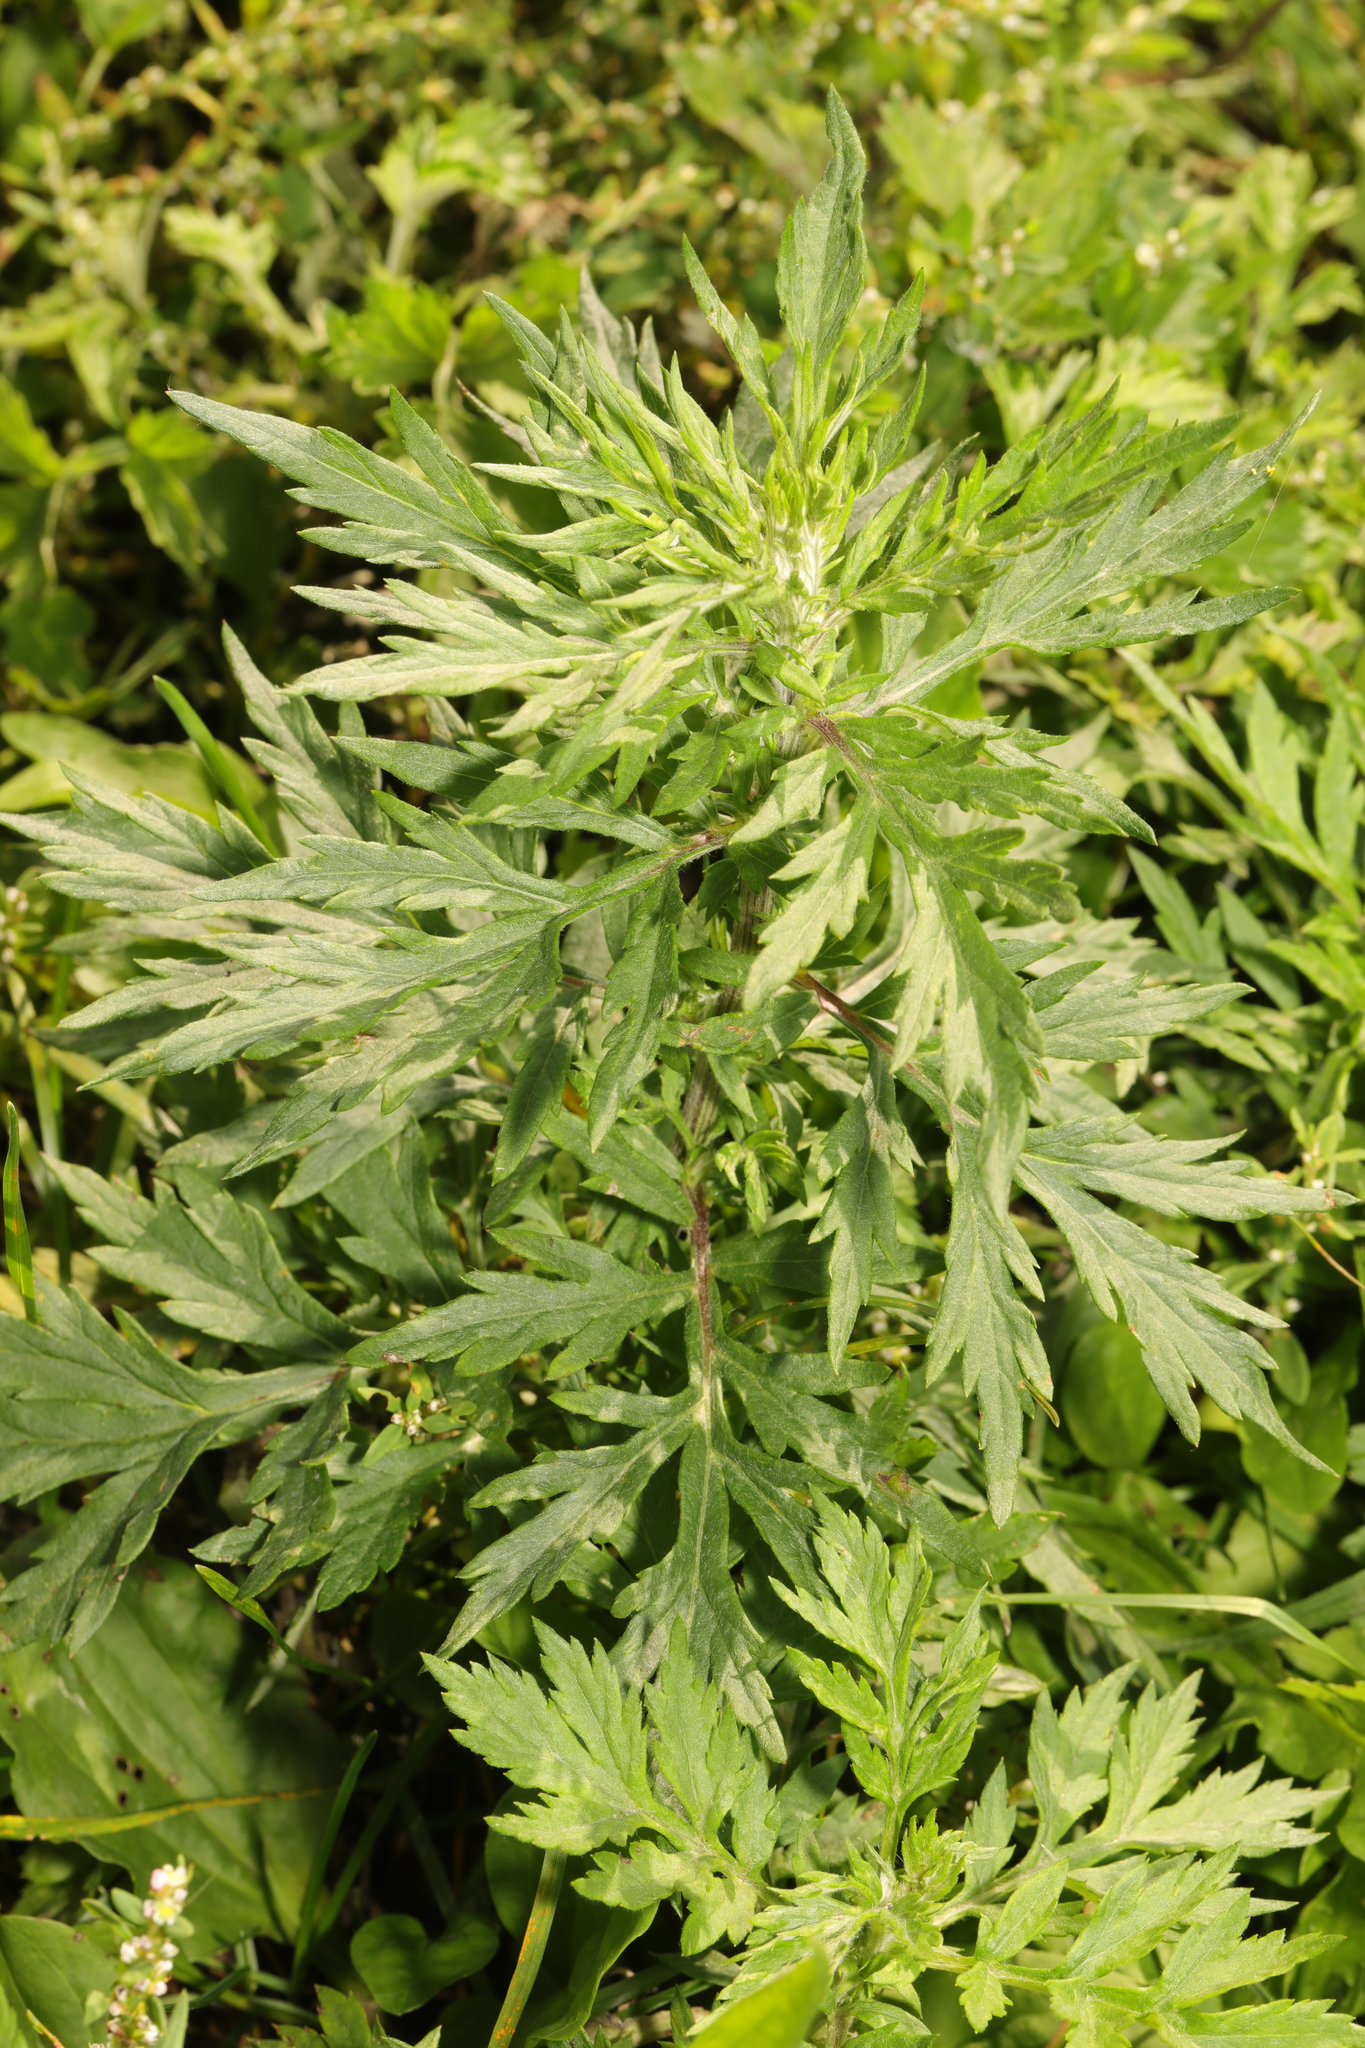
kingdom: Plantae
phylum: Tracheophyta
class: Magnoliopsida
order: Asterales
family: Asteraceae
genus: Artemisia
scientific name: Artemisia vulgaris
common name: Mugwort
